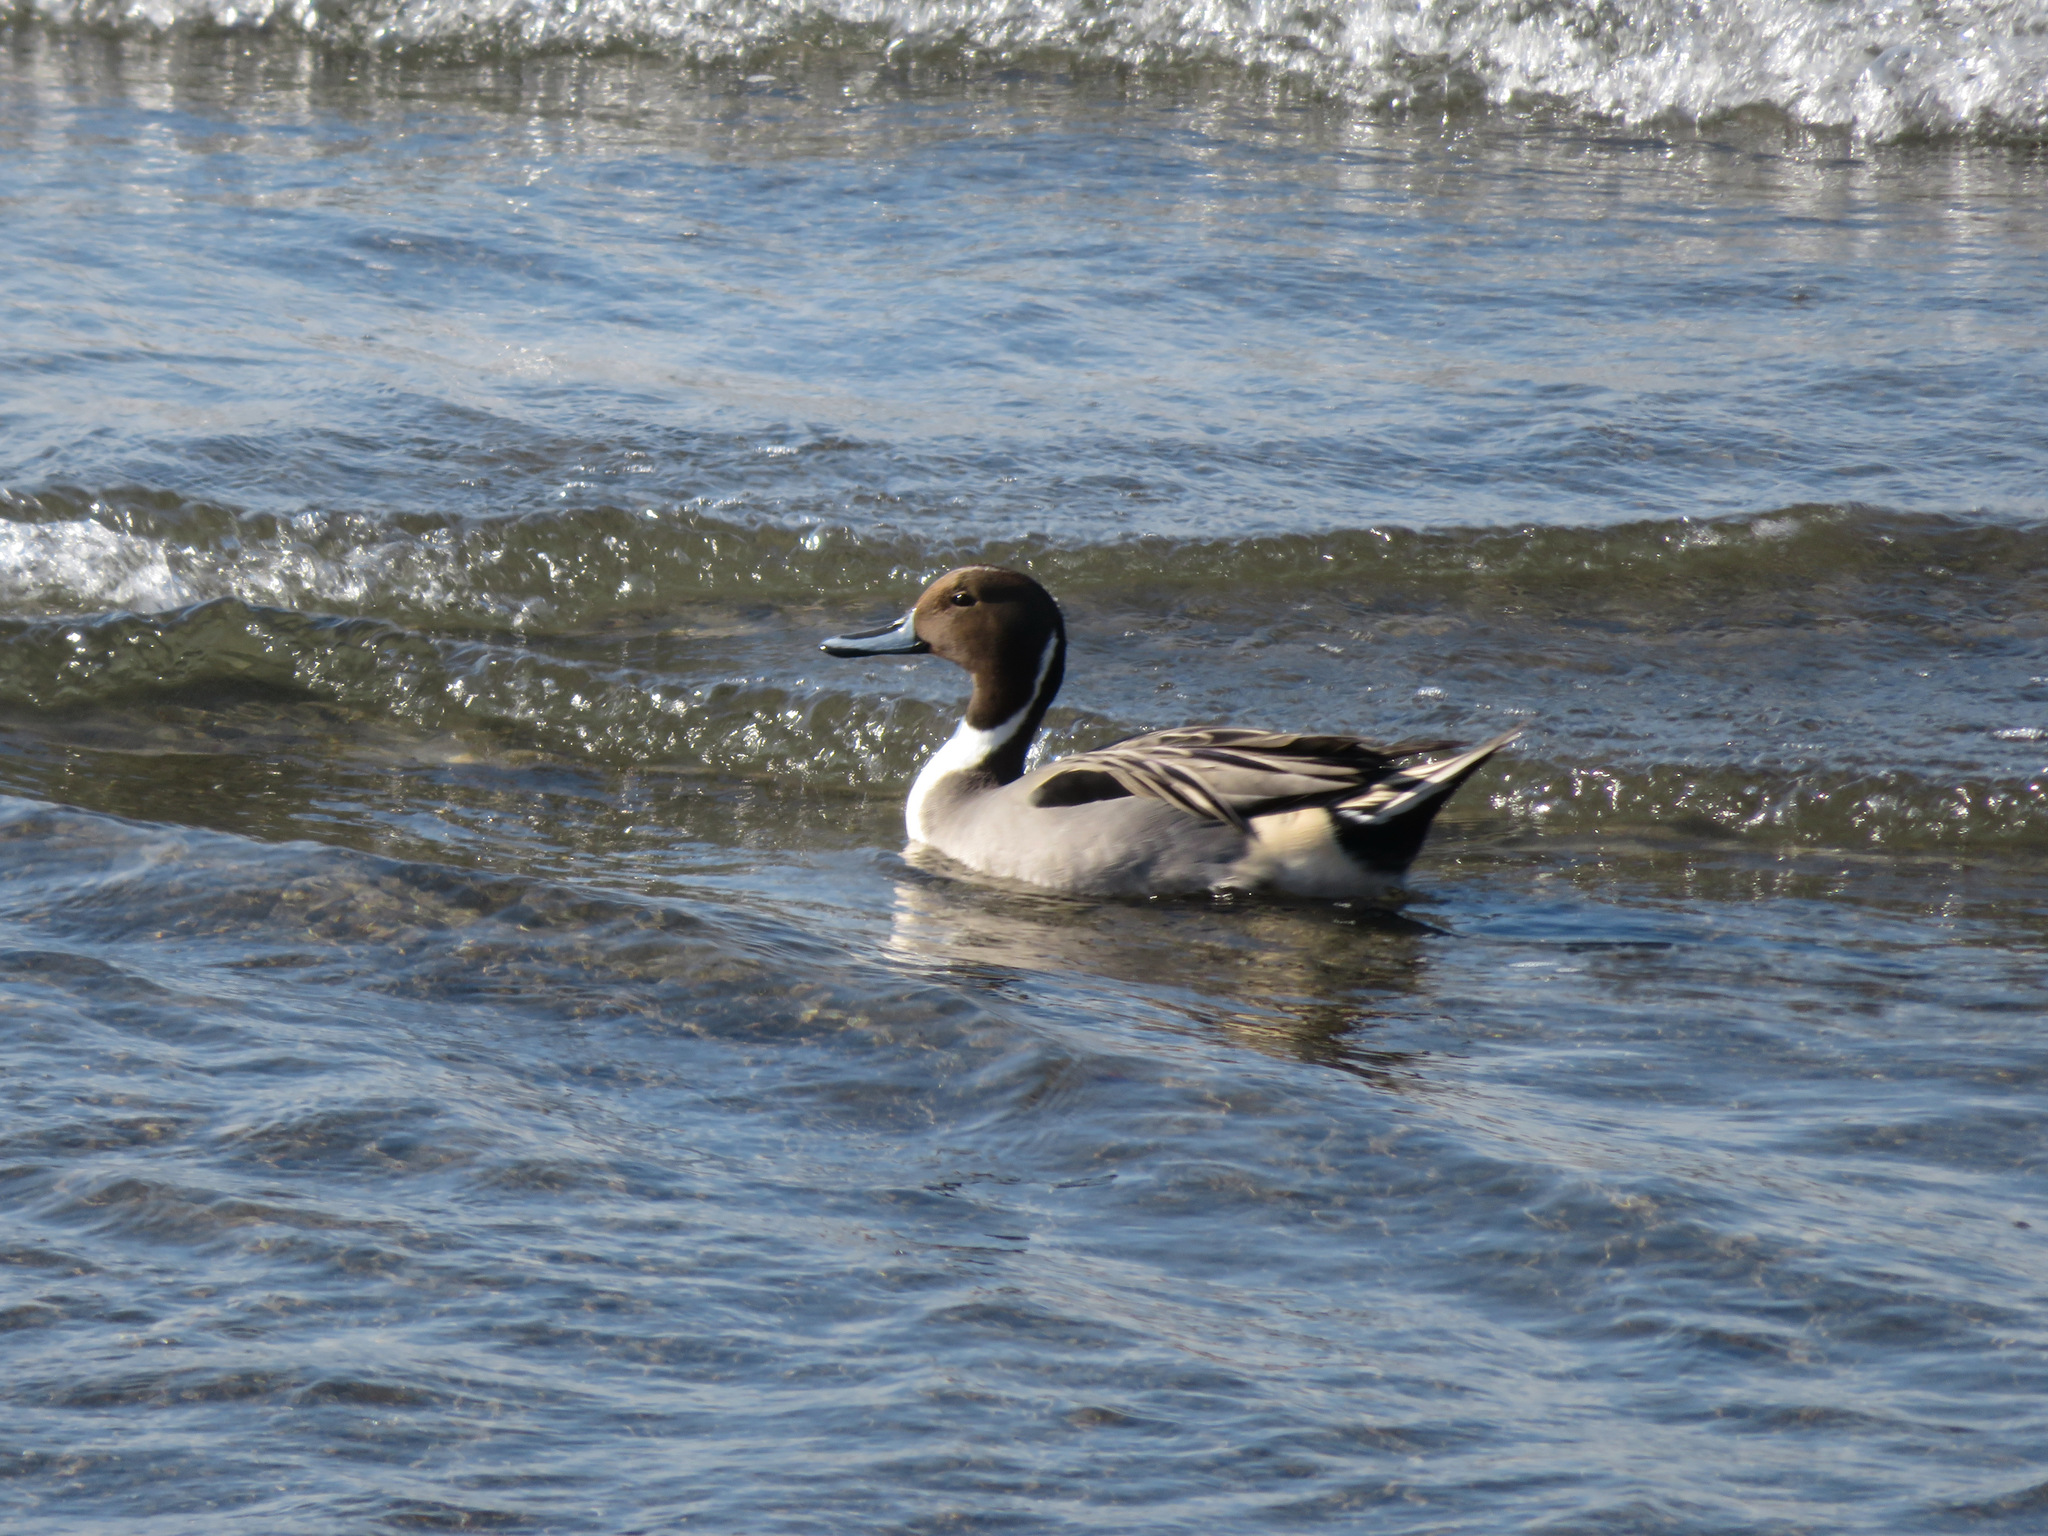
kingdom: Animalia
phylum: Chordata
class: Aves
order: Anseriformes
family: Anatidae
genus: Anas
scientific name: Anas acuta
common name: Northern pintail
